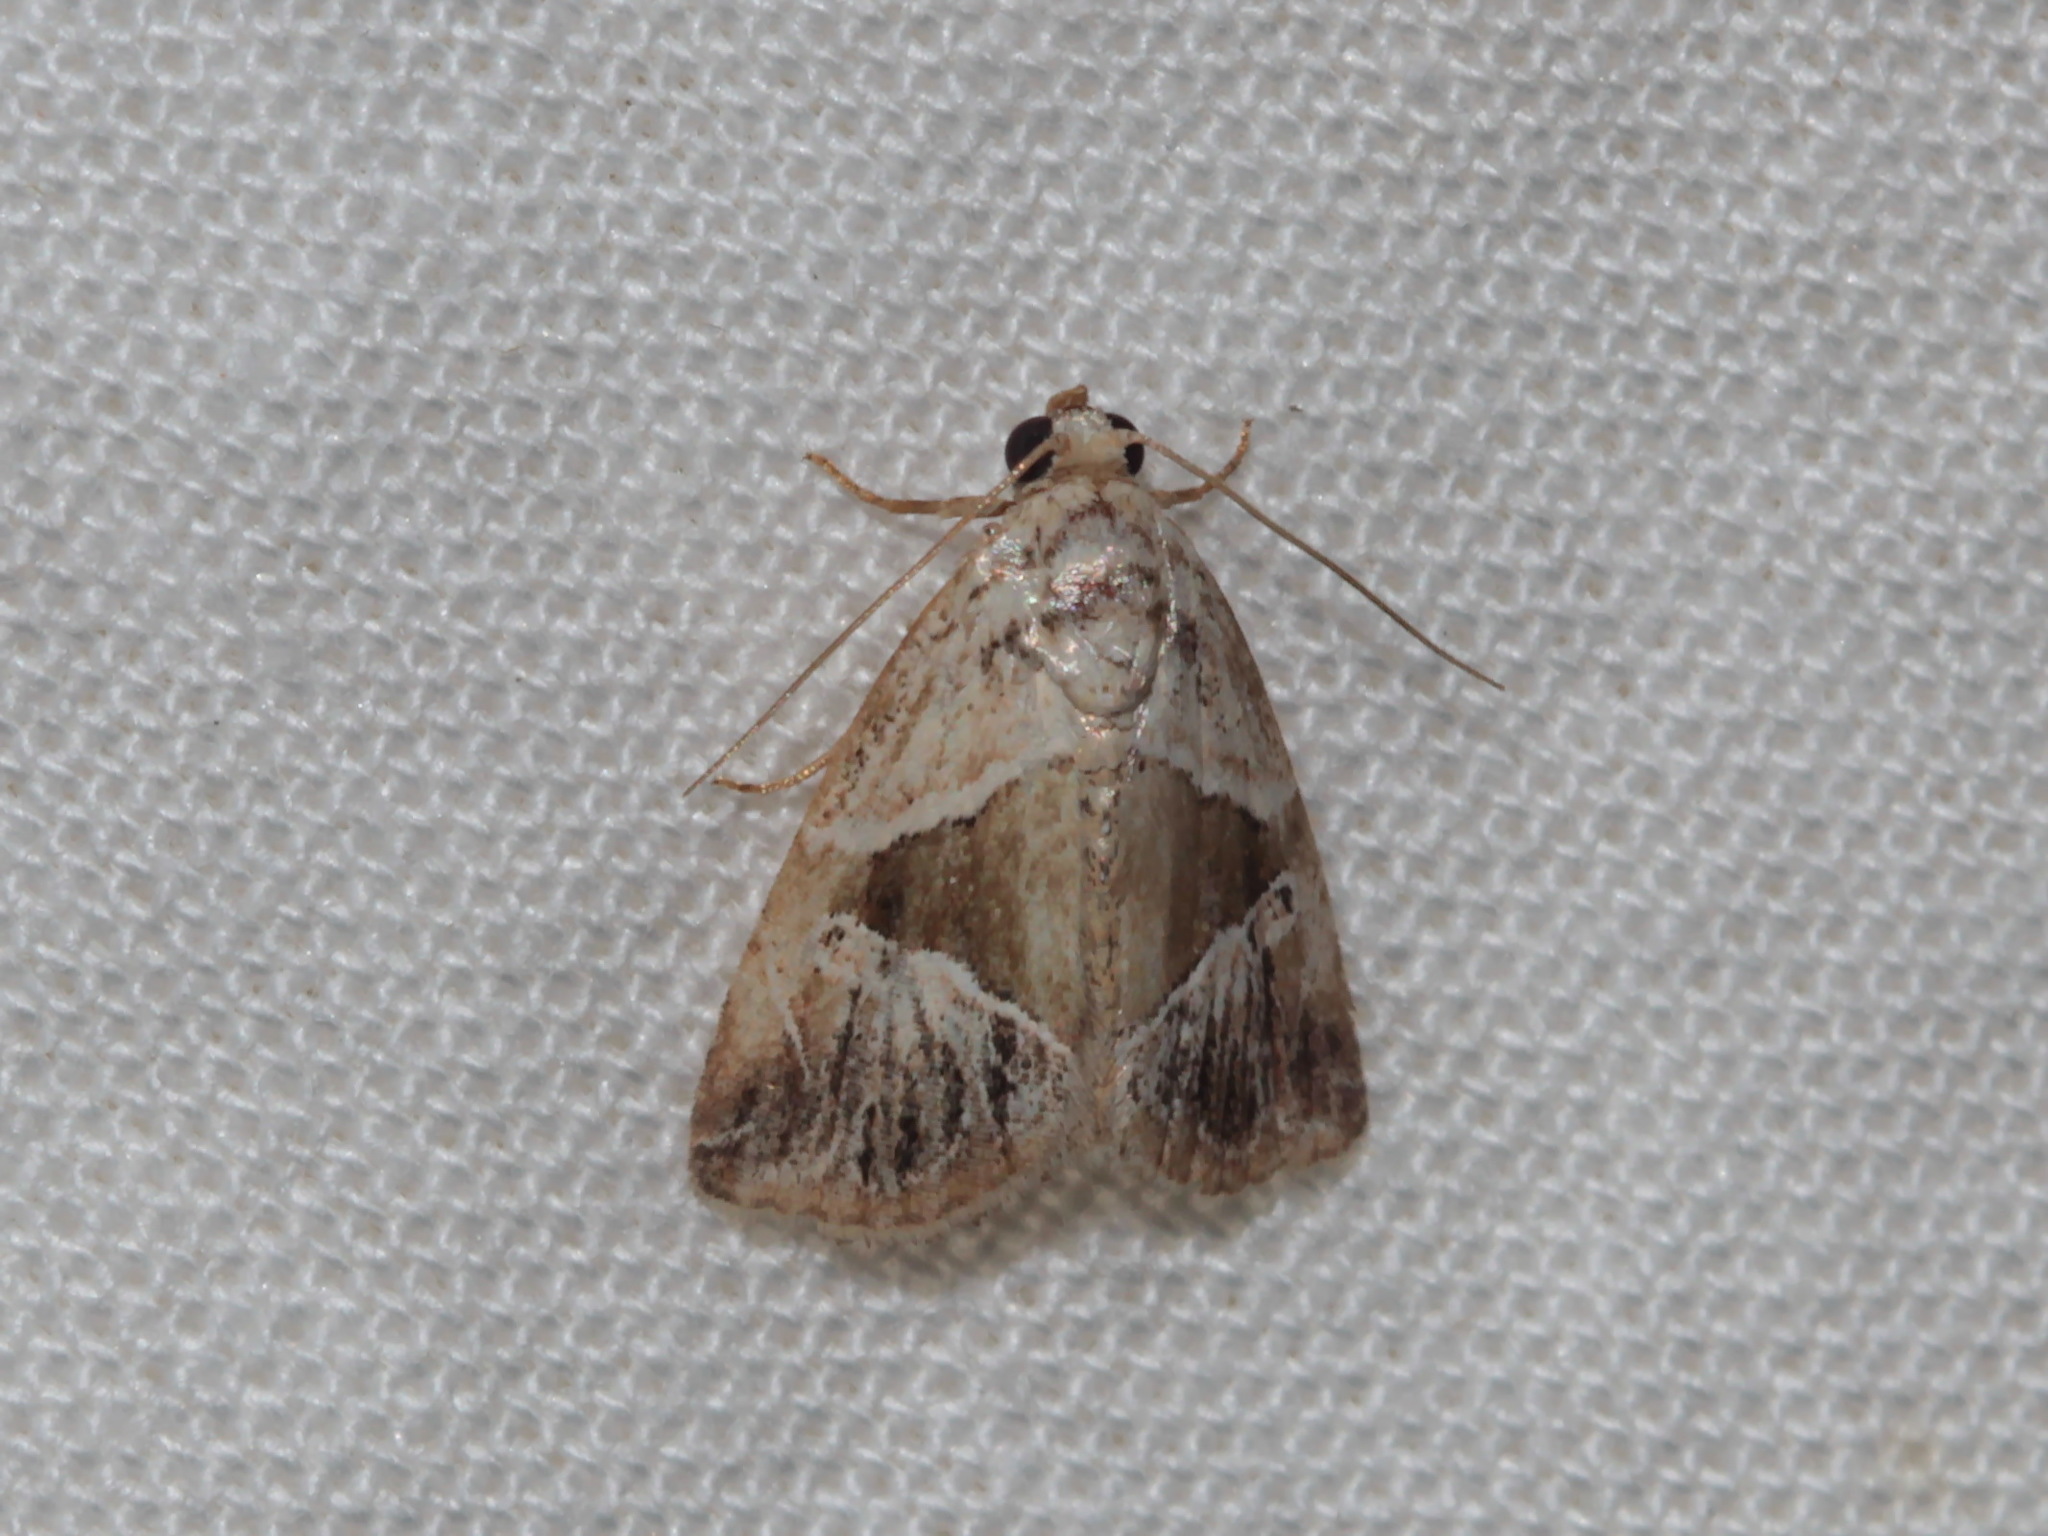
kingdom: Animalia
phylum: Arthropoda
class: Insecta
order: Lepidoptera
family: Noctuidae
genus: Maliattha
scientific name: Maliattha separata
